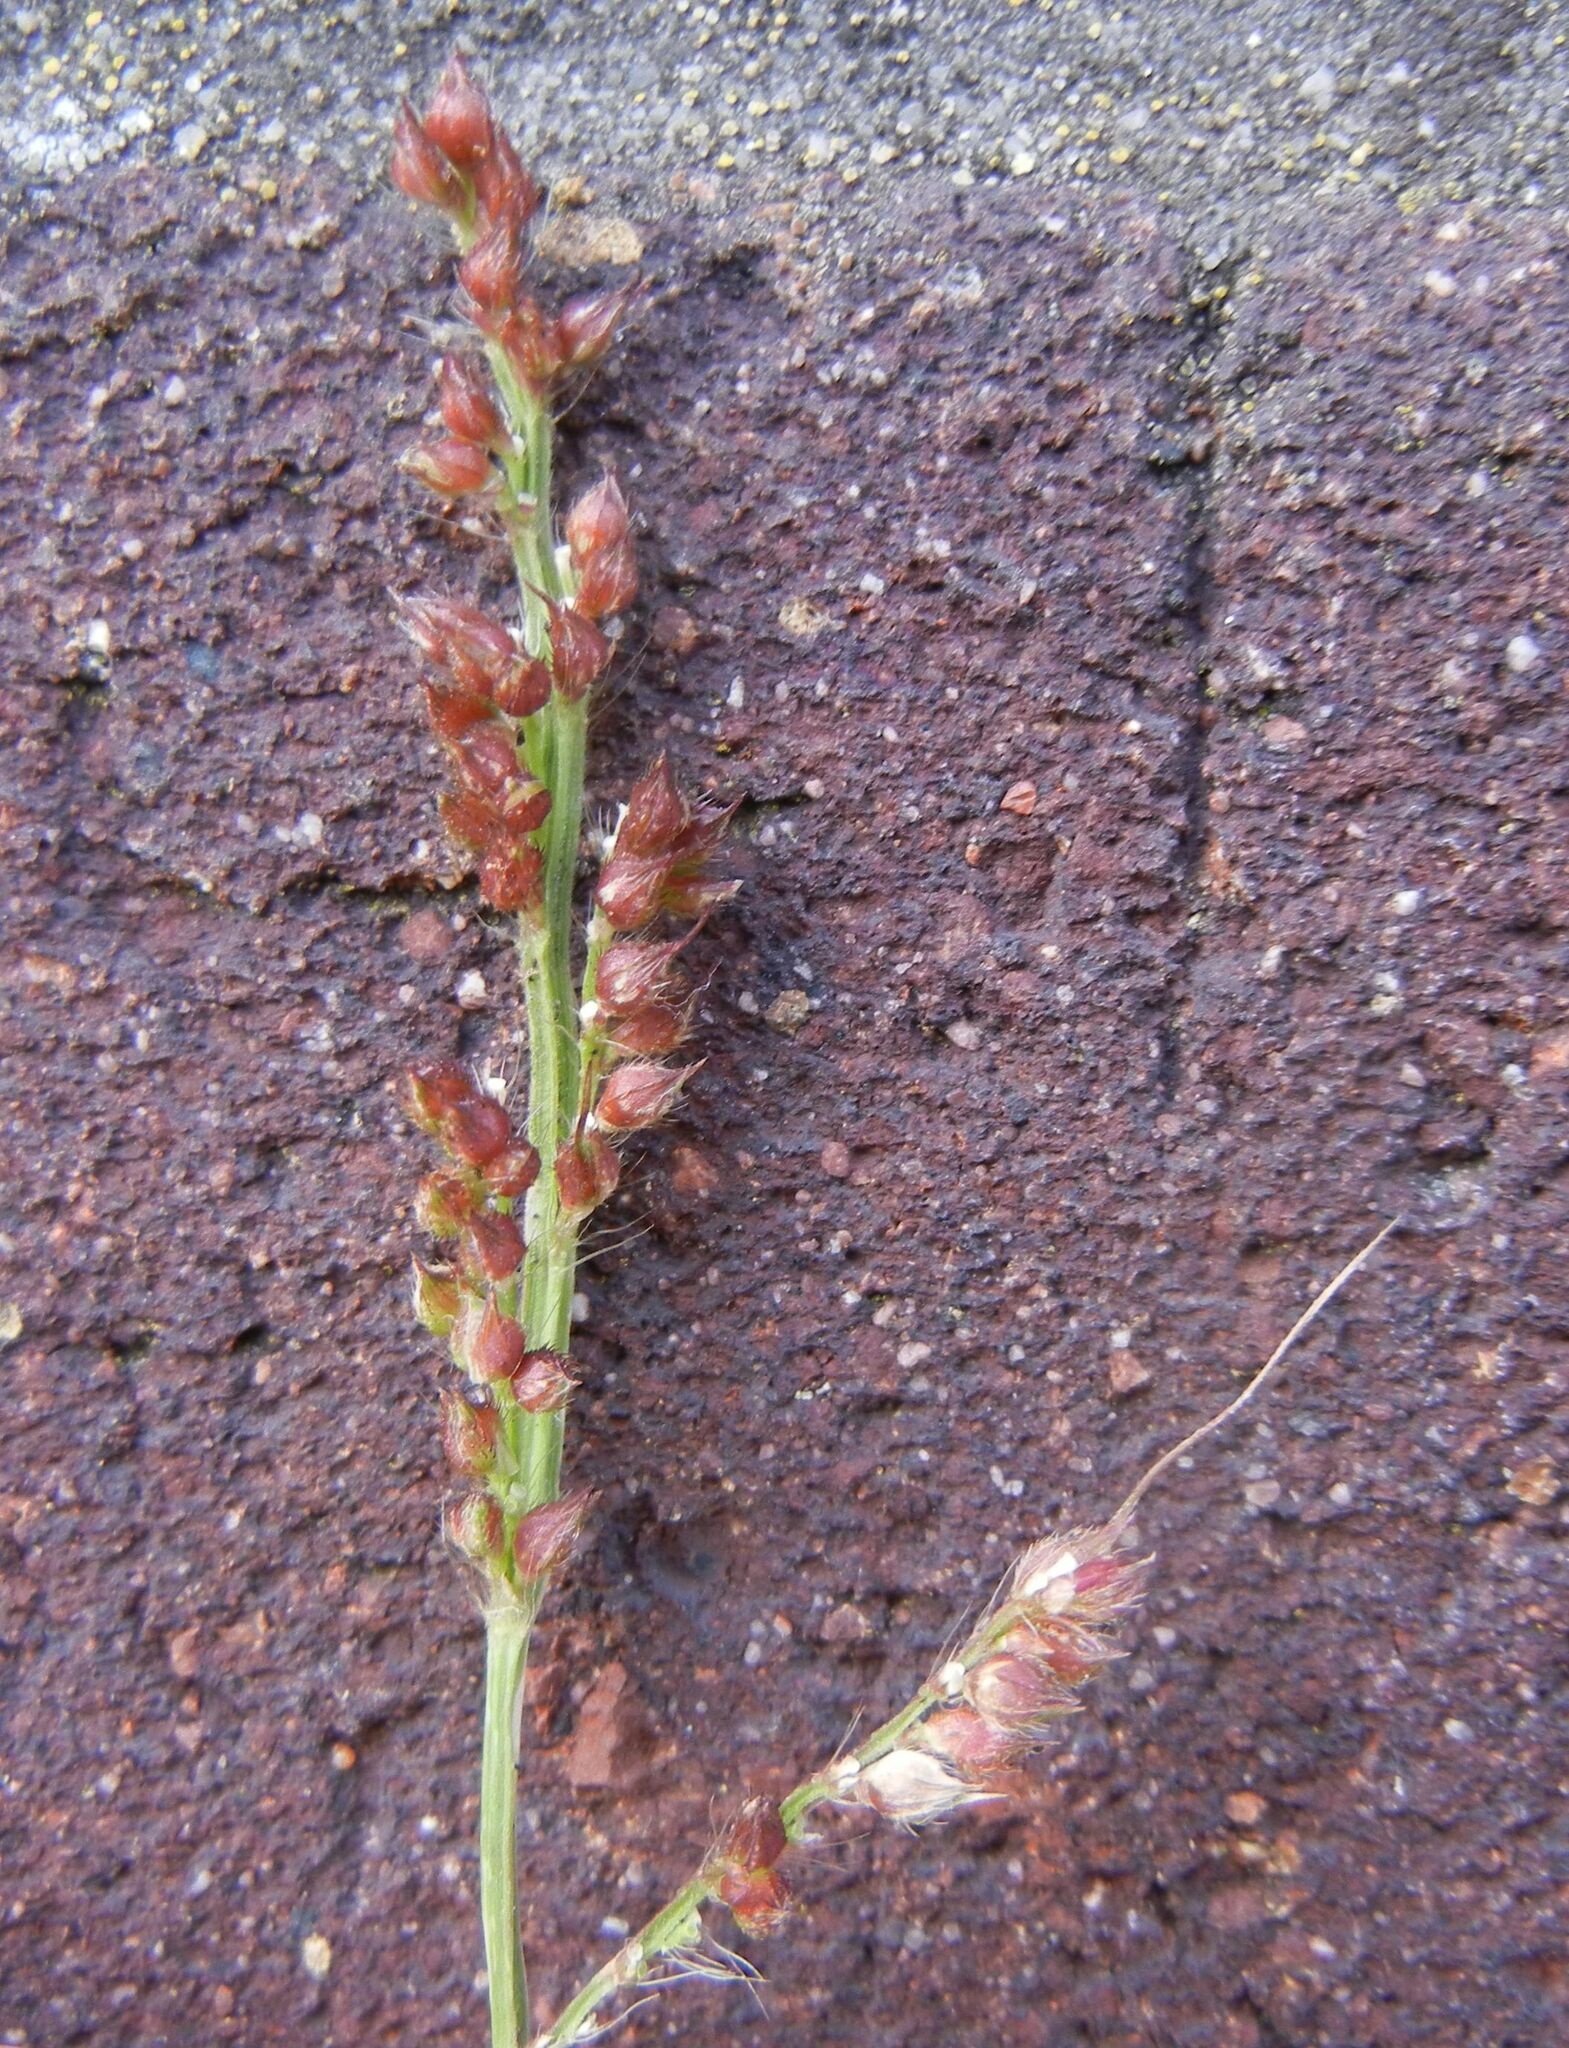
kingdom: Plantae
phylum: Tracheophyta
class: Liliopsida
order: Poales
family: Poaceae
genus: Echinochloa
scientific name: Echinochloa crus-galli
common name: Cockspur
